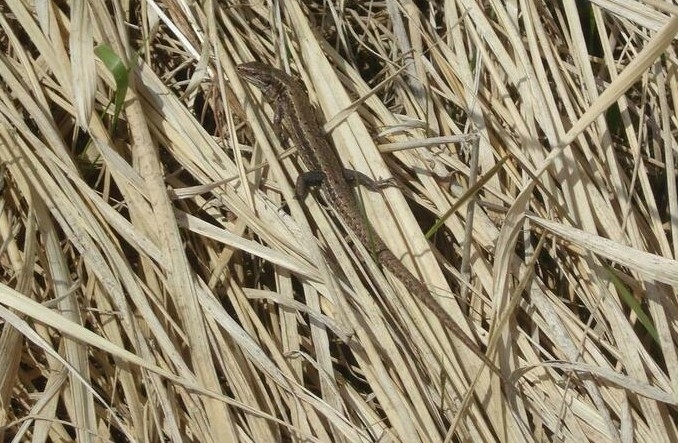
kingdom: Animalia
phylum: Chordata
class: Squamata
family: Lacertidae
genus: Zootoca
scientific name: Zootoca vivipara
